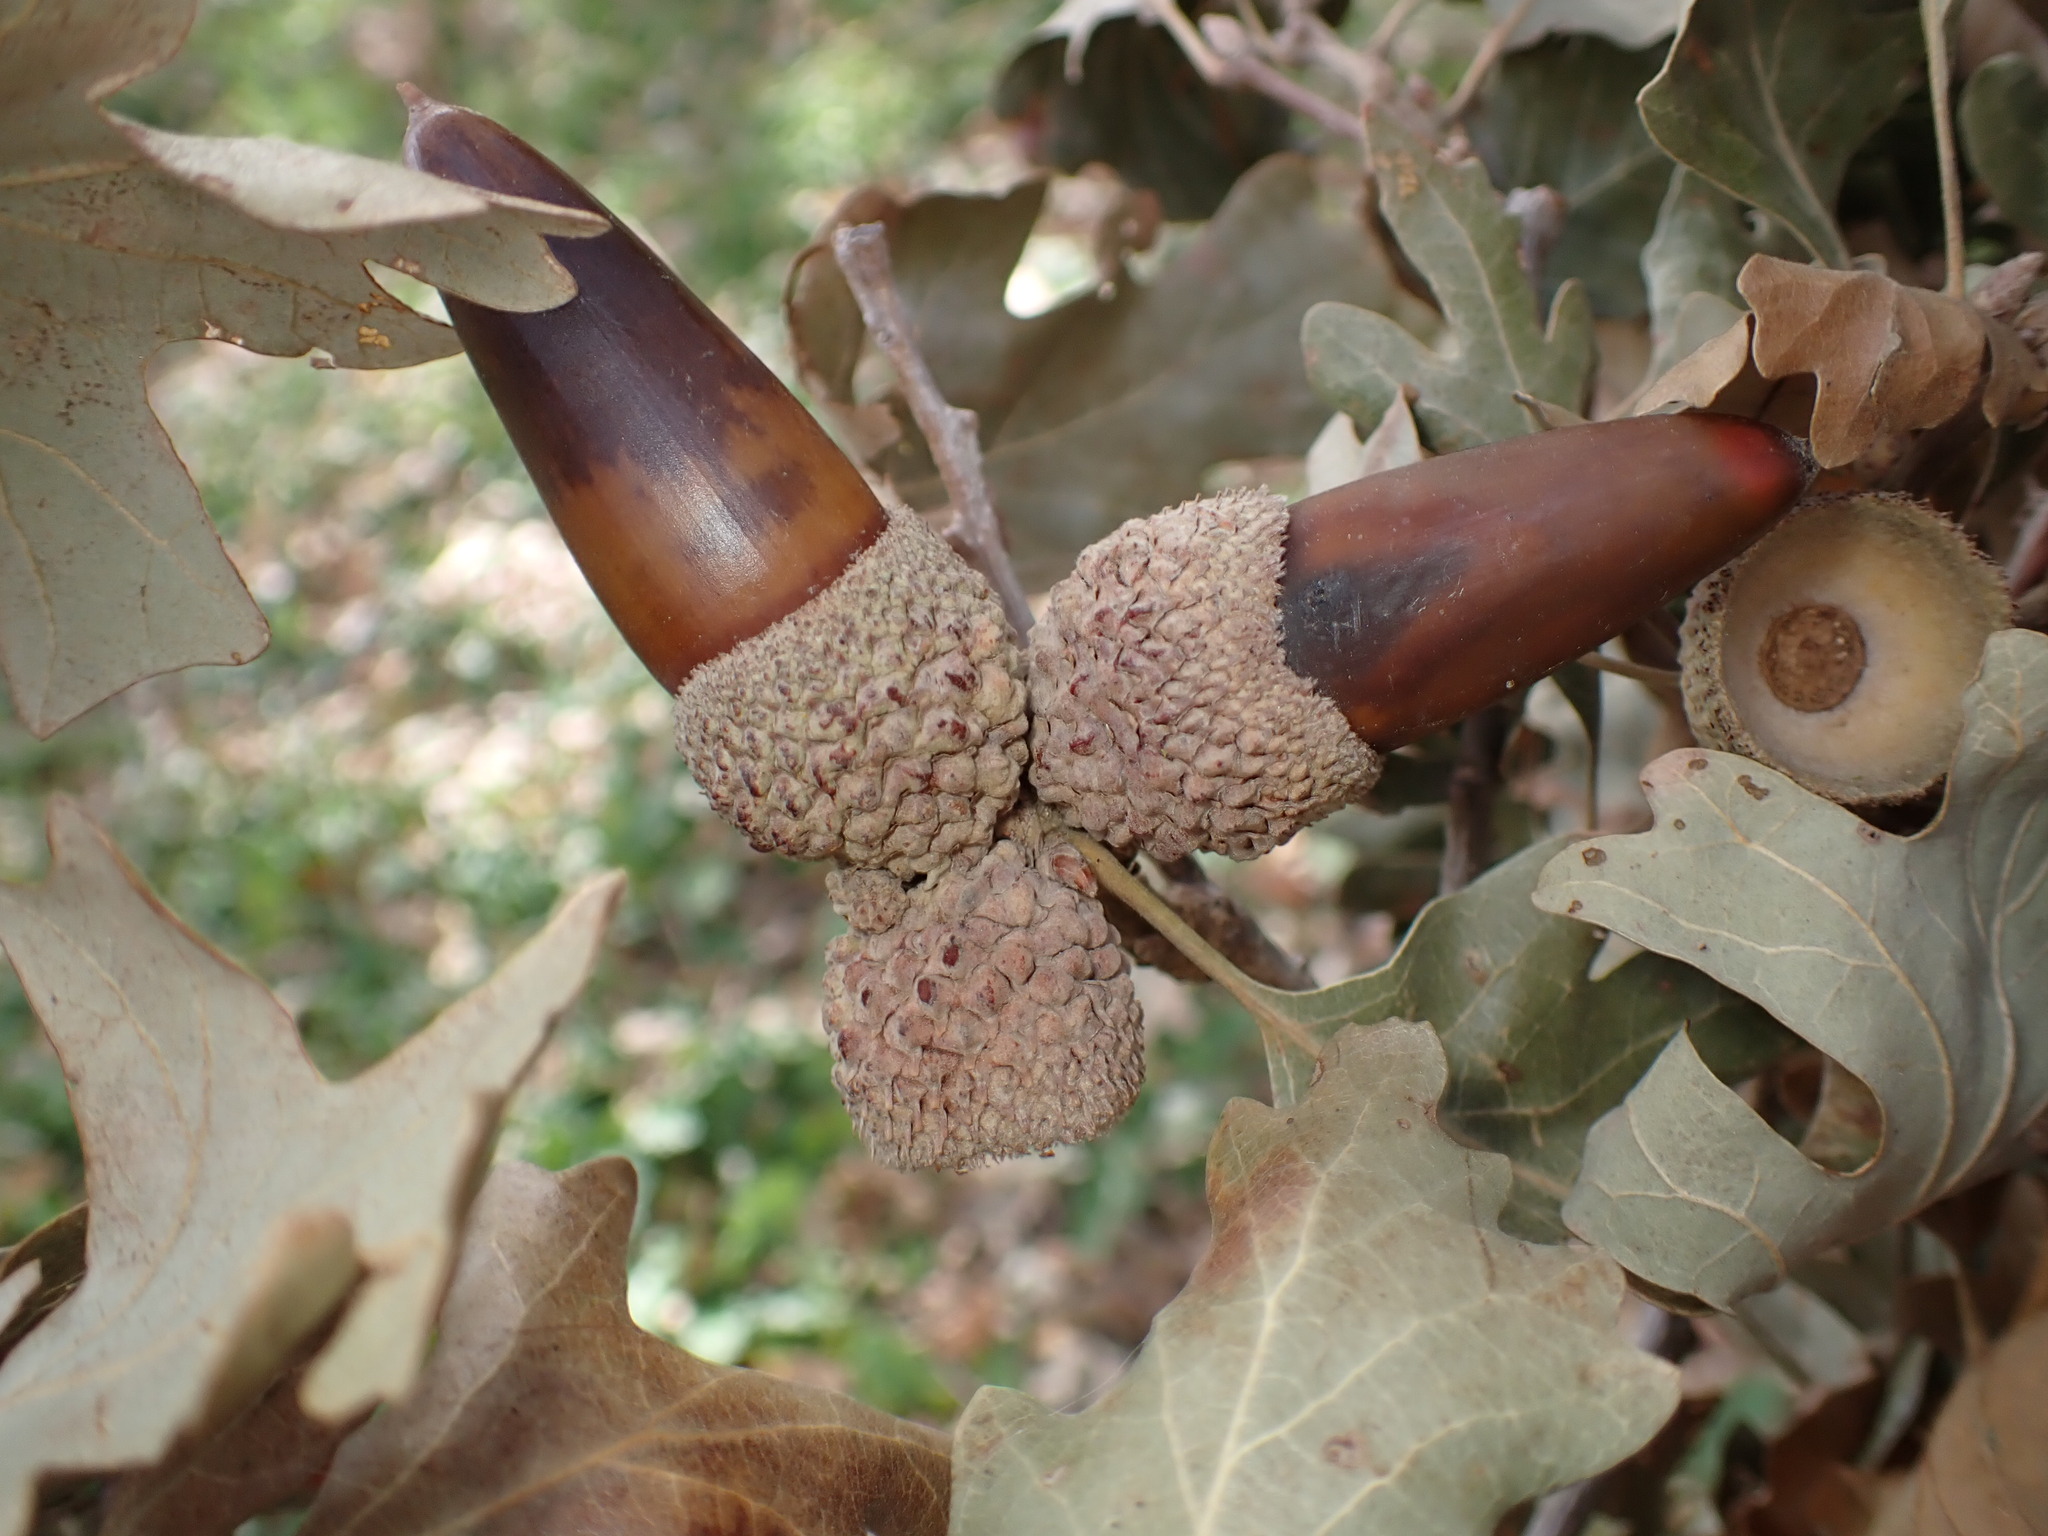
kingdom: Plantae
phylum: Tracheophyta
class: Magnoliopsida
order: Fagales
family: Fagaceae
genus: Quercus
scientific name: Quercus lobata
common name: Valley oak
